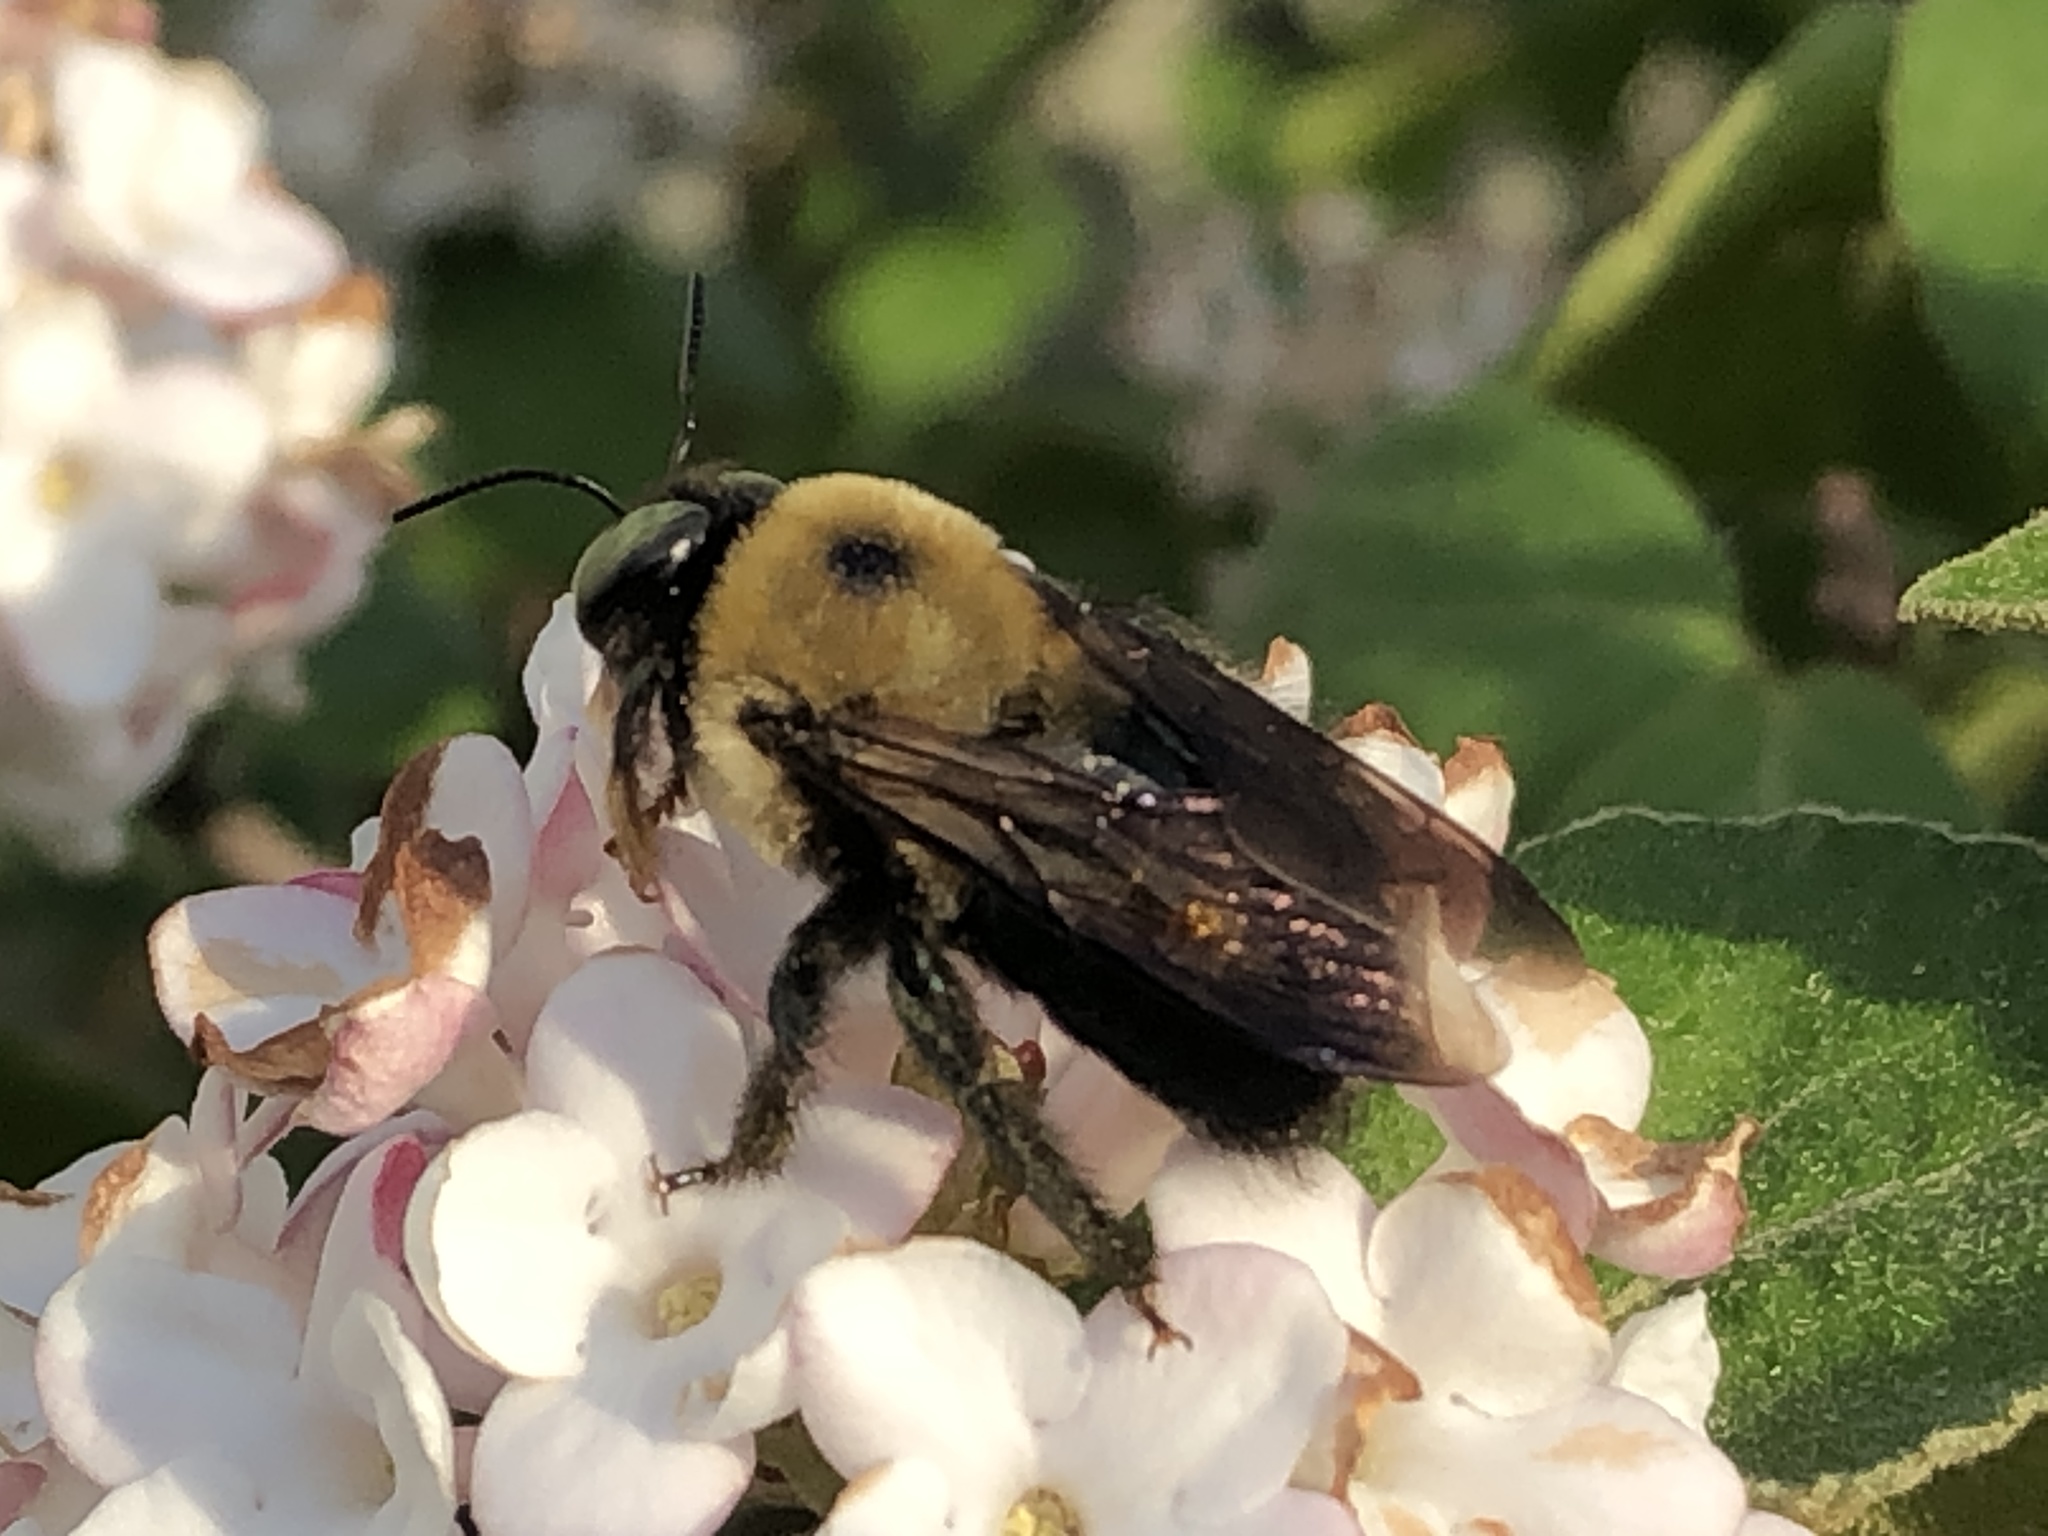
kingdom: Animalia
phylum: Arthropoda
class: Insecta
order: Hymenoptera
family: Apidae
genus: Xylocopa
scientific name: Xylocopa virginica
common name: Carpenter bee
